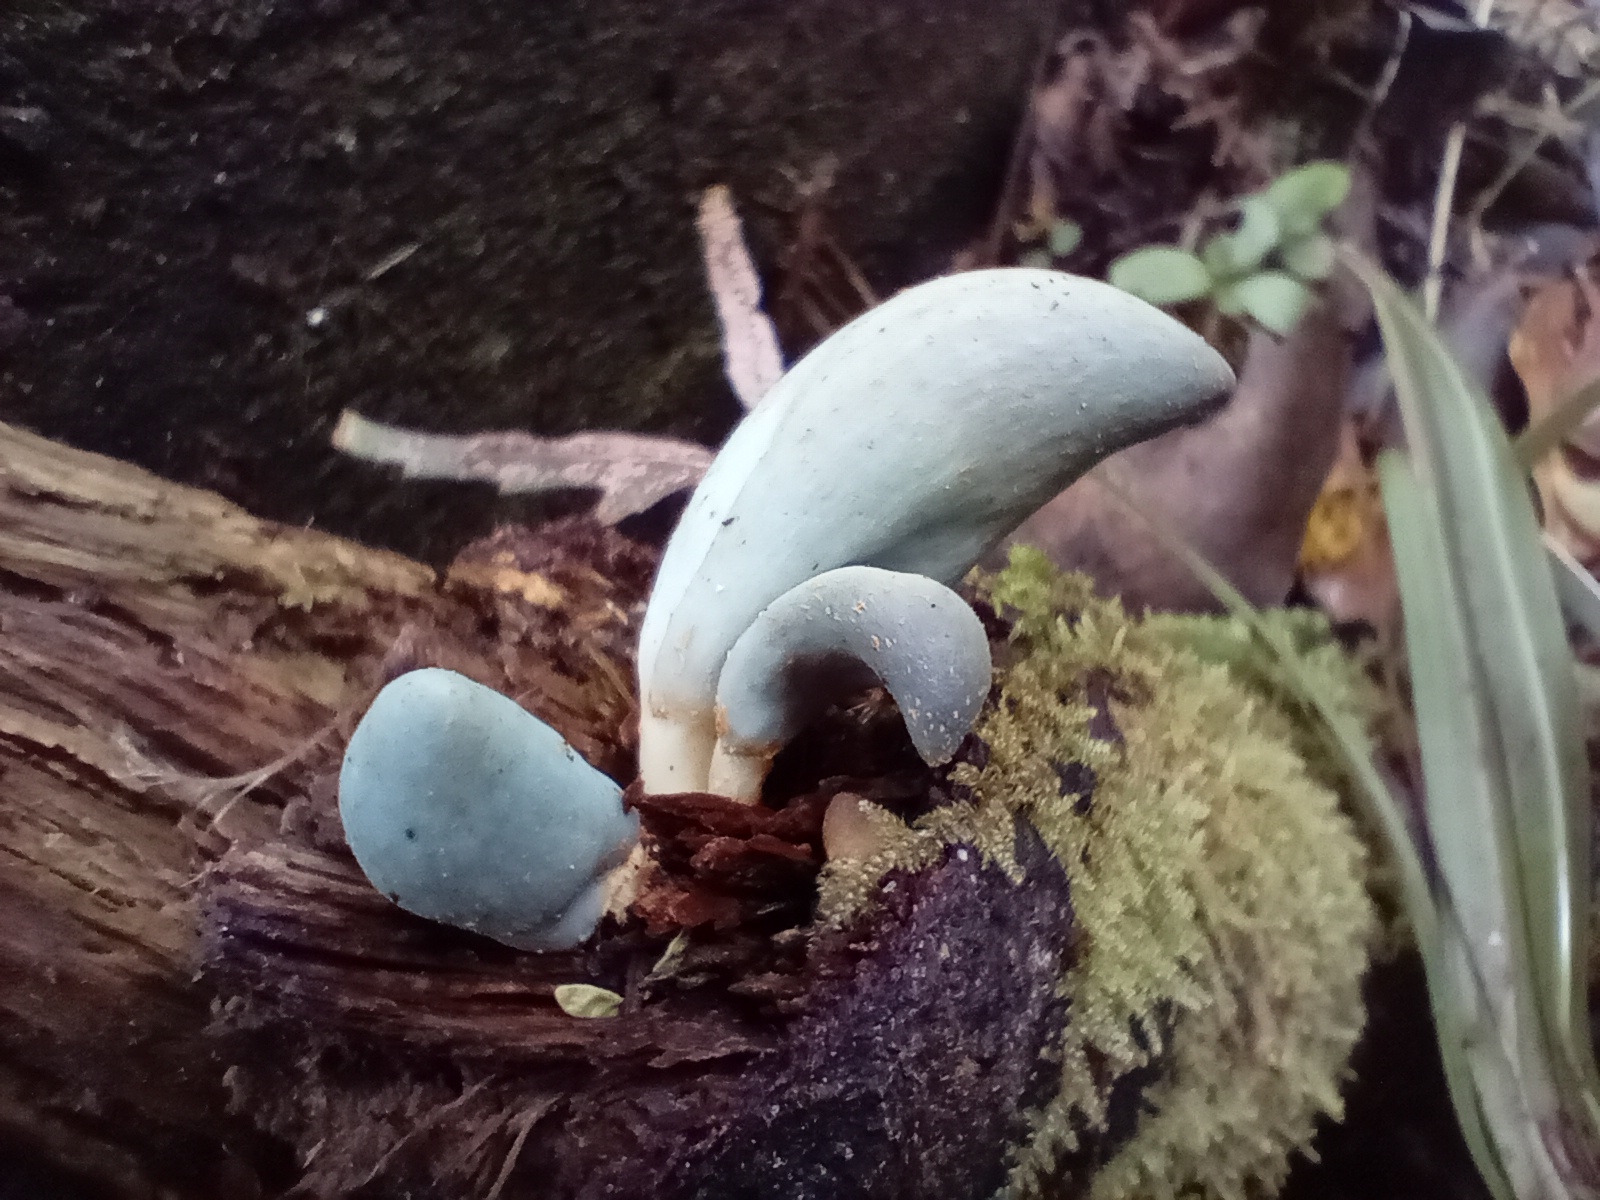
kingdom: Fungi
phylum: Basidiomycota
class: Agaricomycetes
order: Agaricales
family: Agaricaceae
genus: Clavogaster
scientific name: Clavogaster virescens
